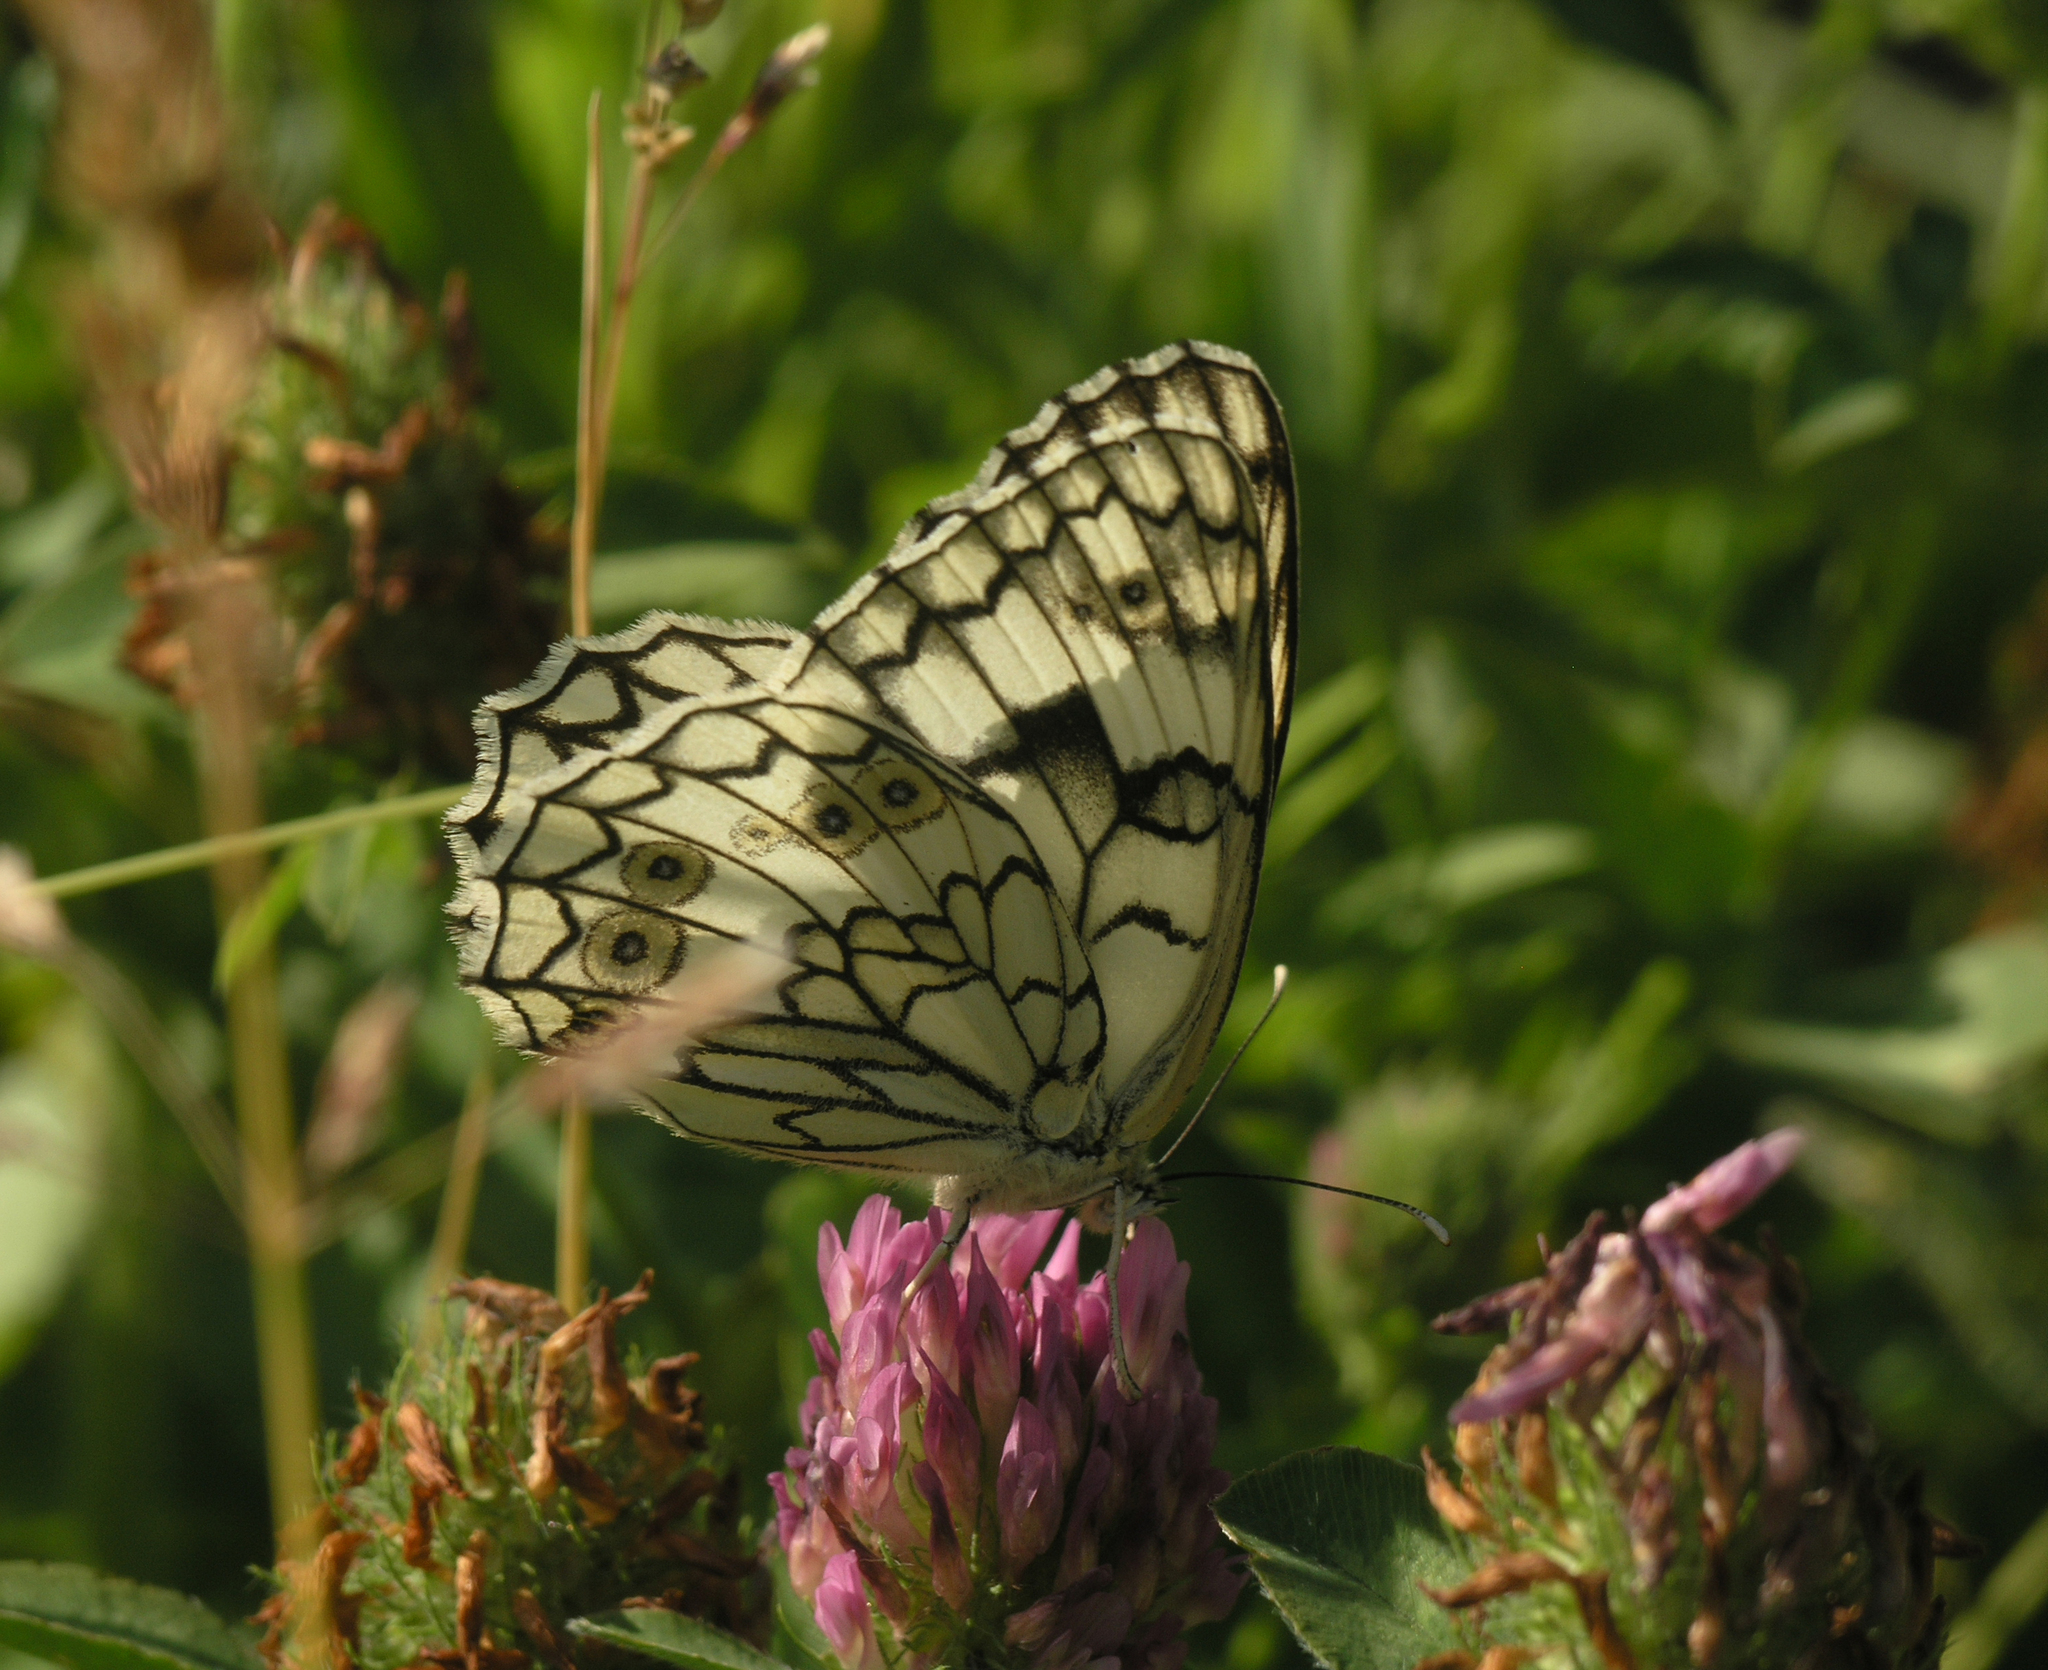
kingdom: Plantae
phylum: Tracheophyta
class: Magnoliopsida
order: Fabales
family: Fabaceae
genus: Trifolium
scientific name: Trifolium pratense
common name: Red clover
